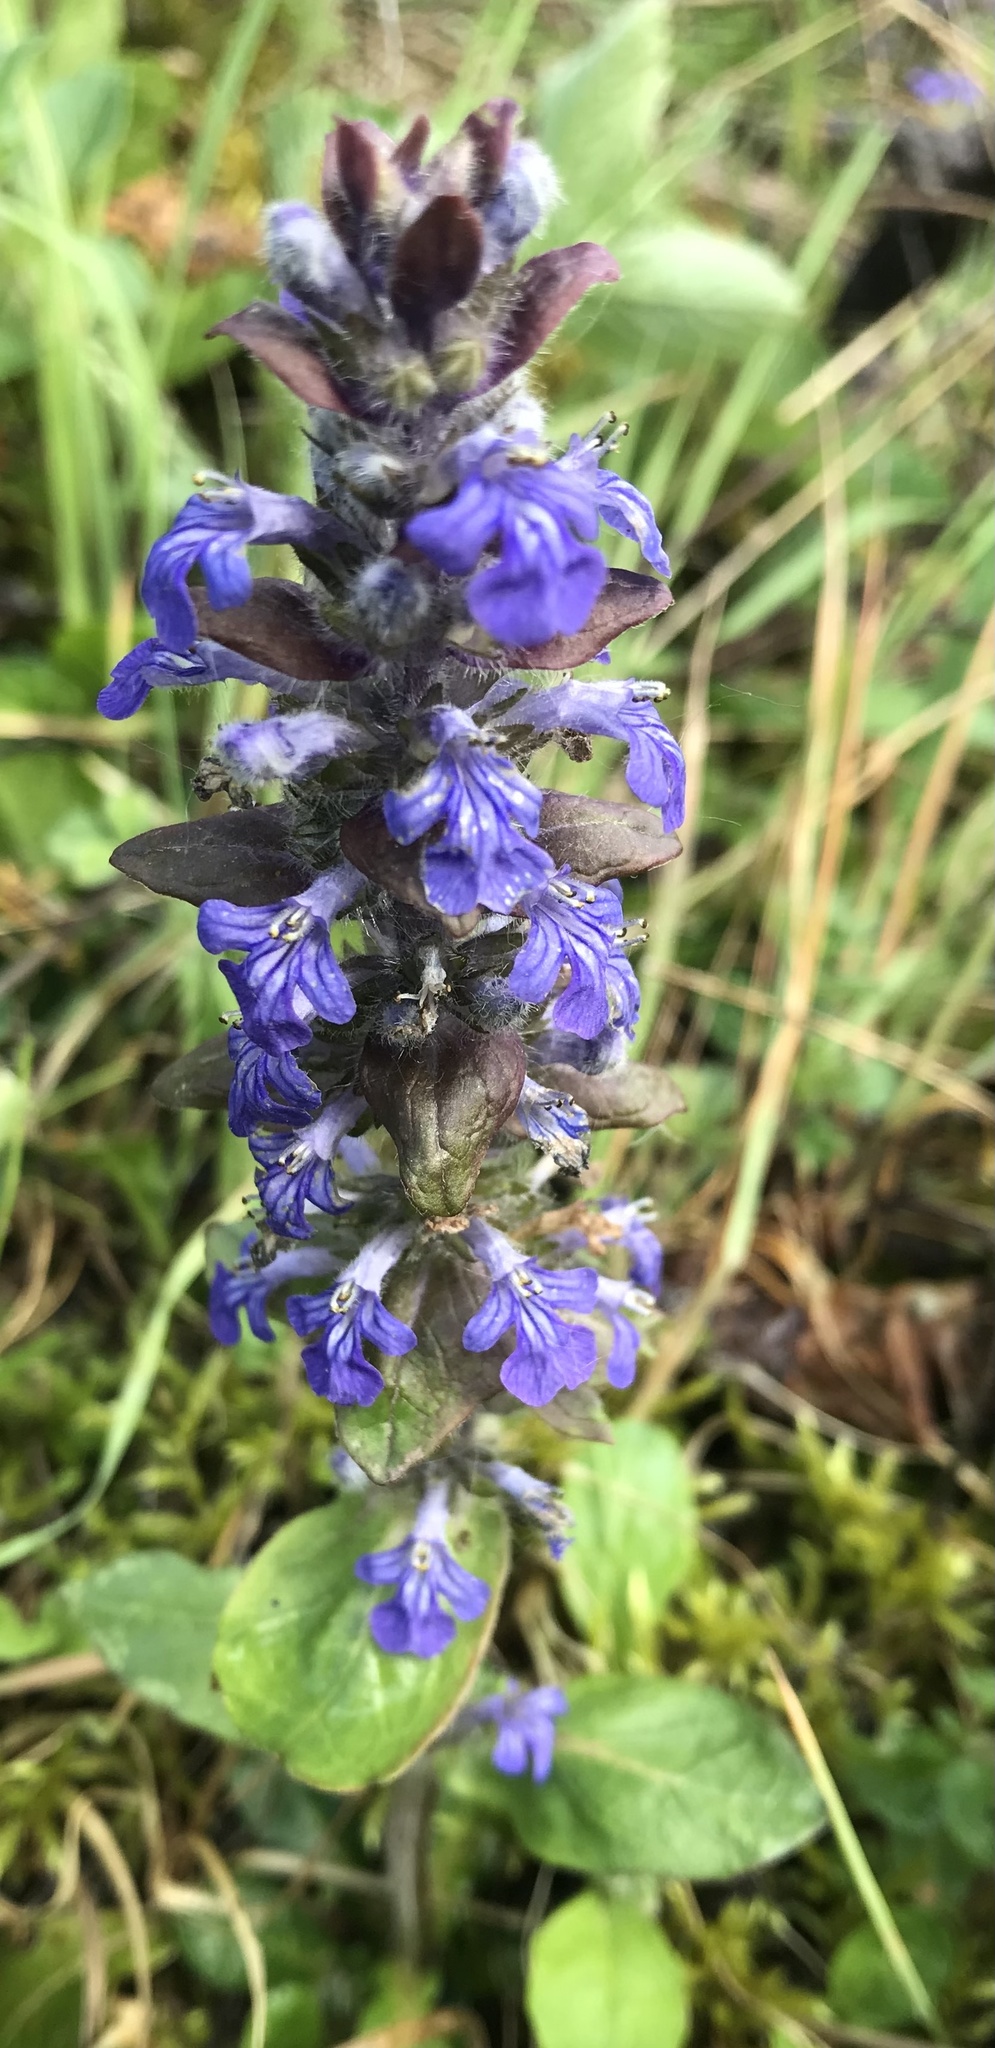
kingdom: Plantae
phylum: Tracheophyta
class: Magnoliopsida
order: Lamiales
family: Lamiaceae
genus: Ajuga
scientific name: Ajuga reptans
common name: Bugle
